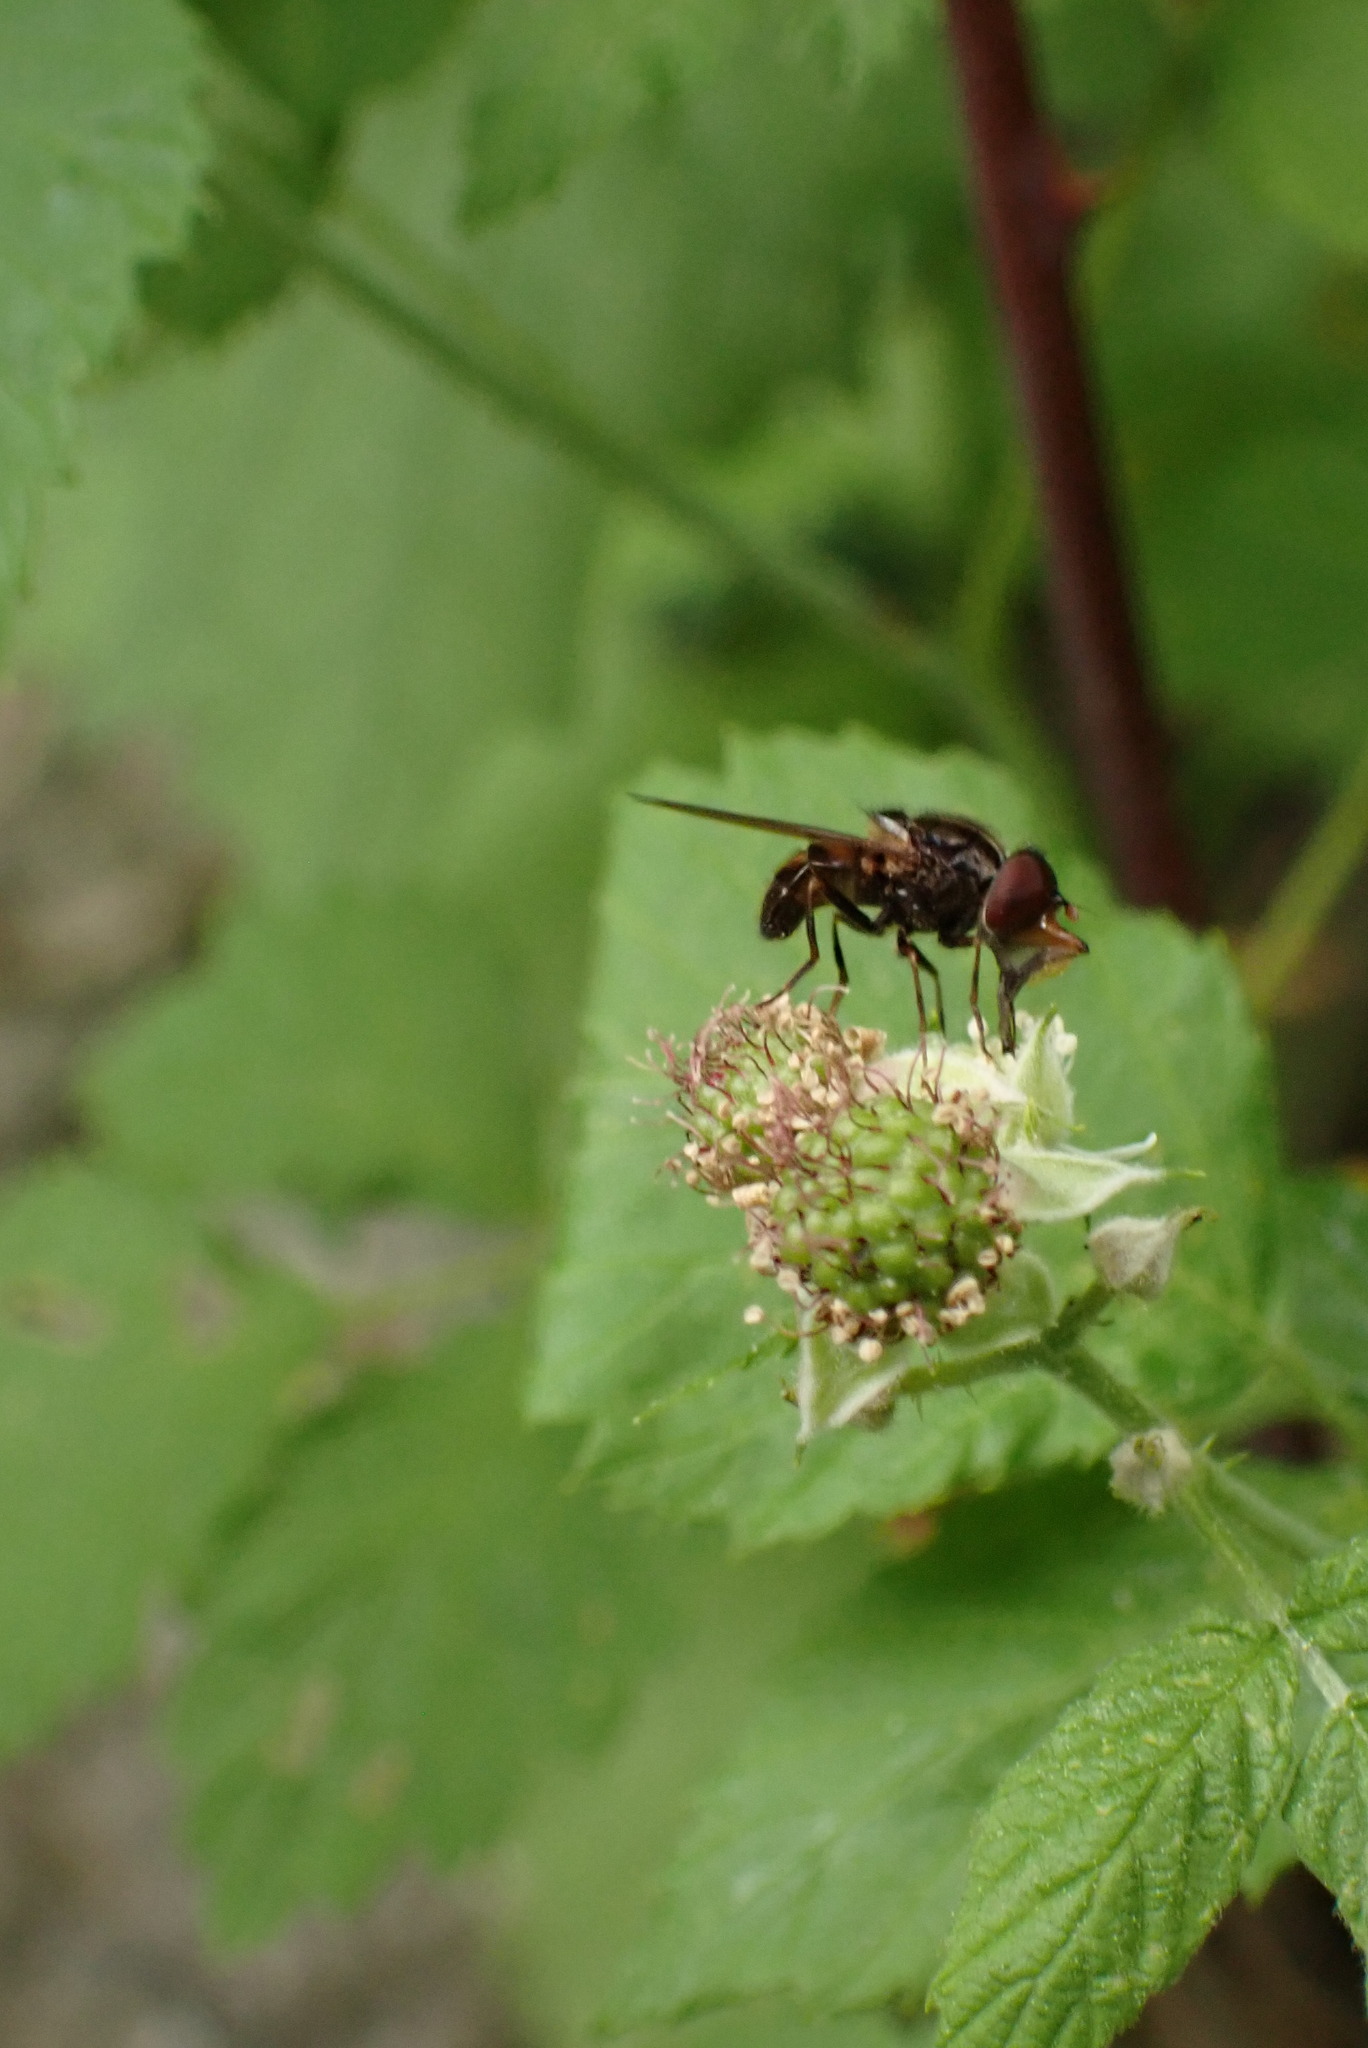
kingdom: Animalia
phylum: Arthropoda
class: Insecta
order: Diptera
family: Syrphidae
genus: Rhingia
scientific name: Rhingia nasica
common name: American snout fly
